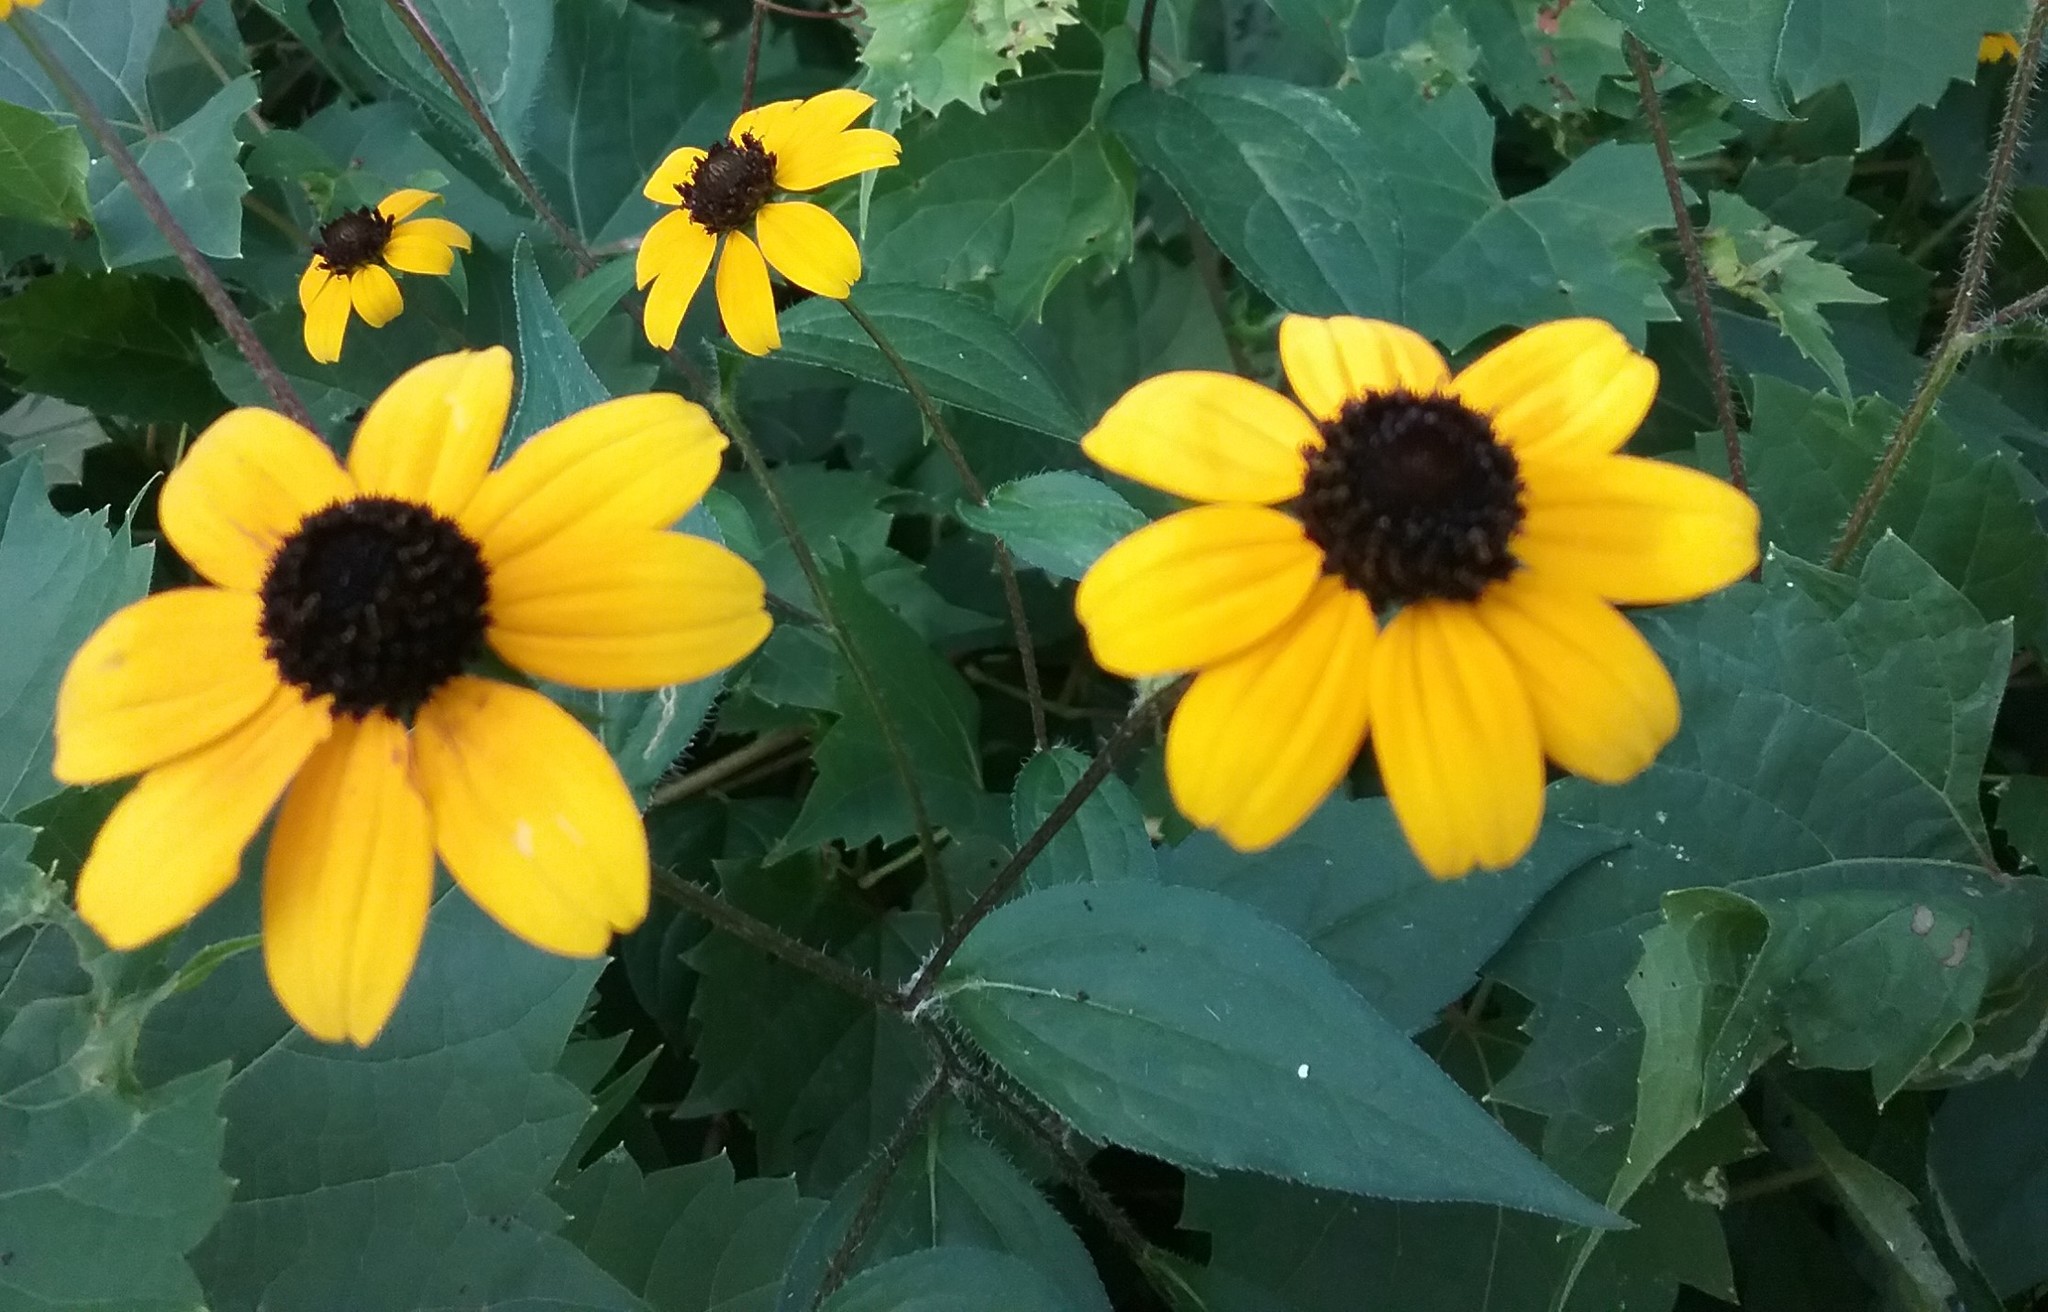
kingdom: Plantae
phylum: Tracheophyta
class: Magnoliopsida
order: Asterales
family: Asteraceae
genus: Rudbeckia
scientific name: Rudbeckia triloba
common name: Thin-leaved coneflower
